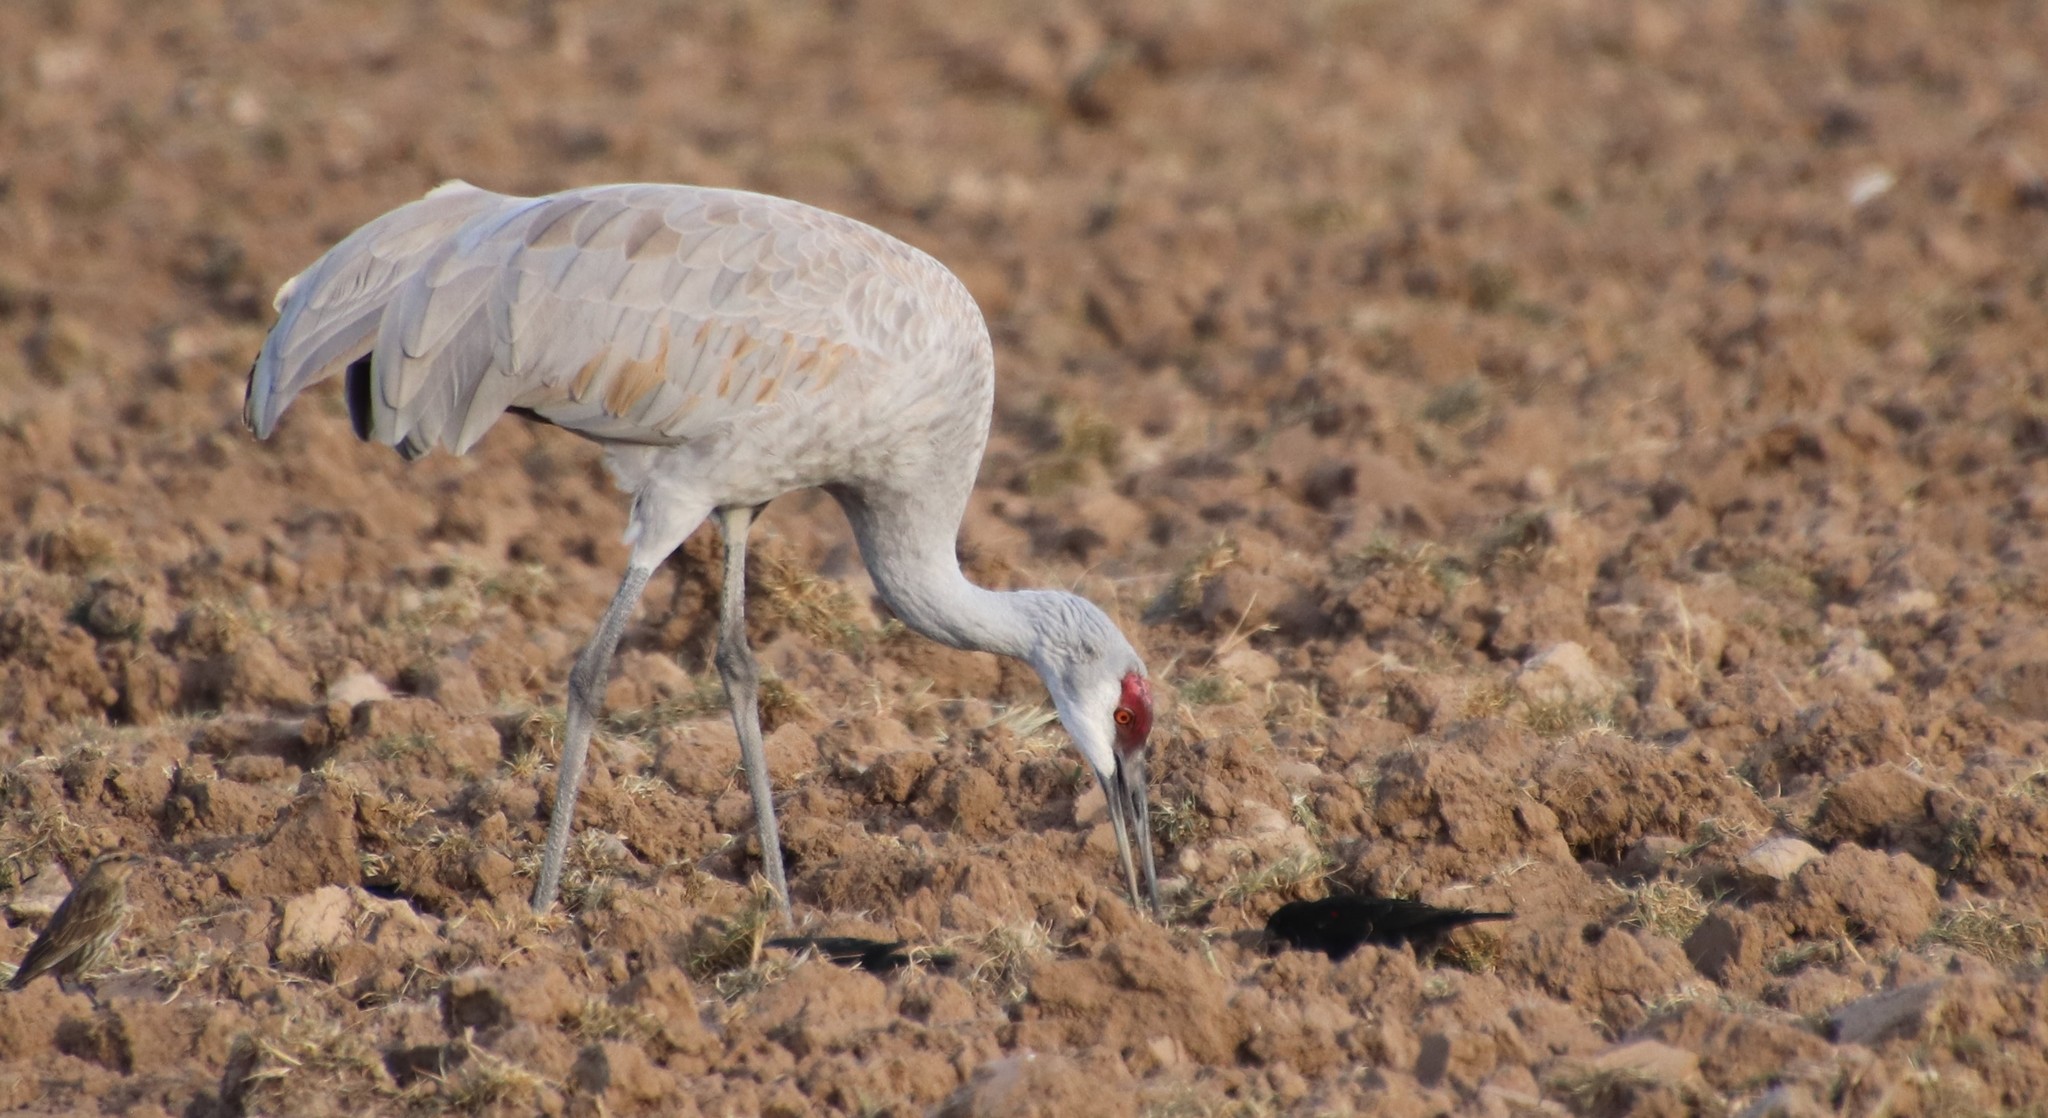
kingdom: Animalia
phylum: Chordata
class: Aves
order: Gruiformes
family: Gruidae
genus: Grus
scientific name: Grus canadensis
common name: Sandhill crane
